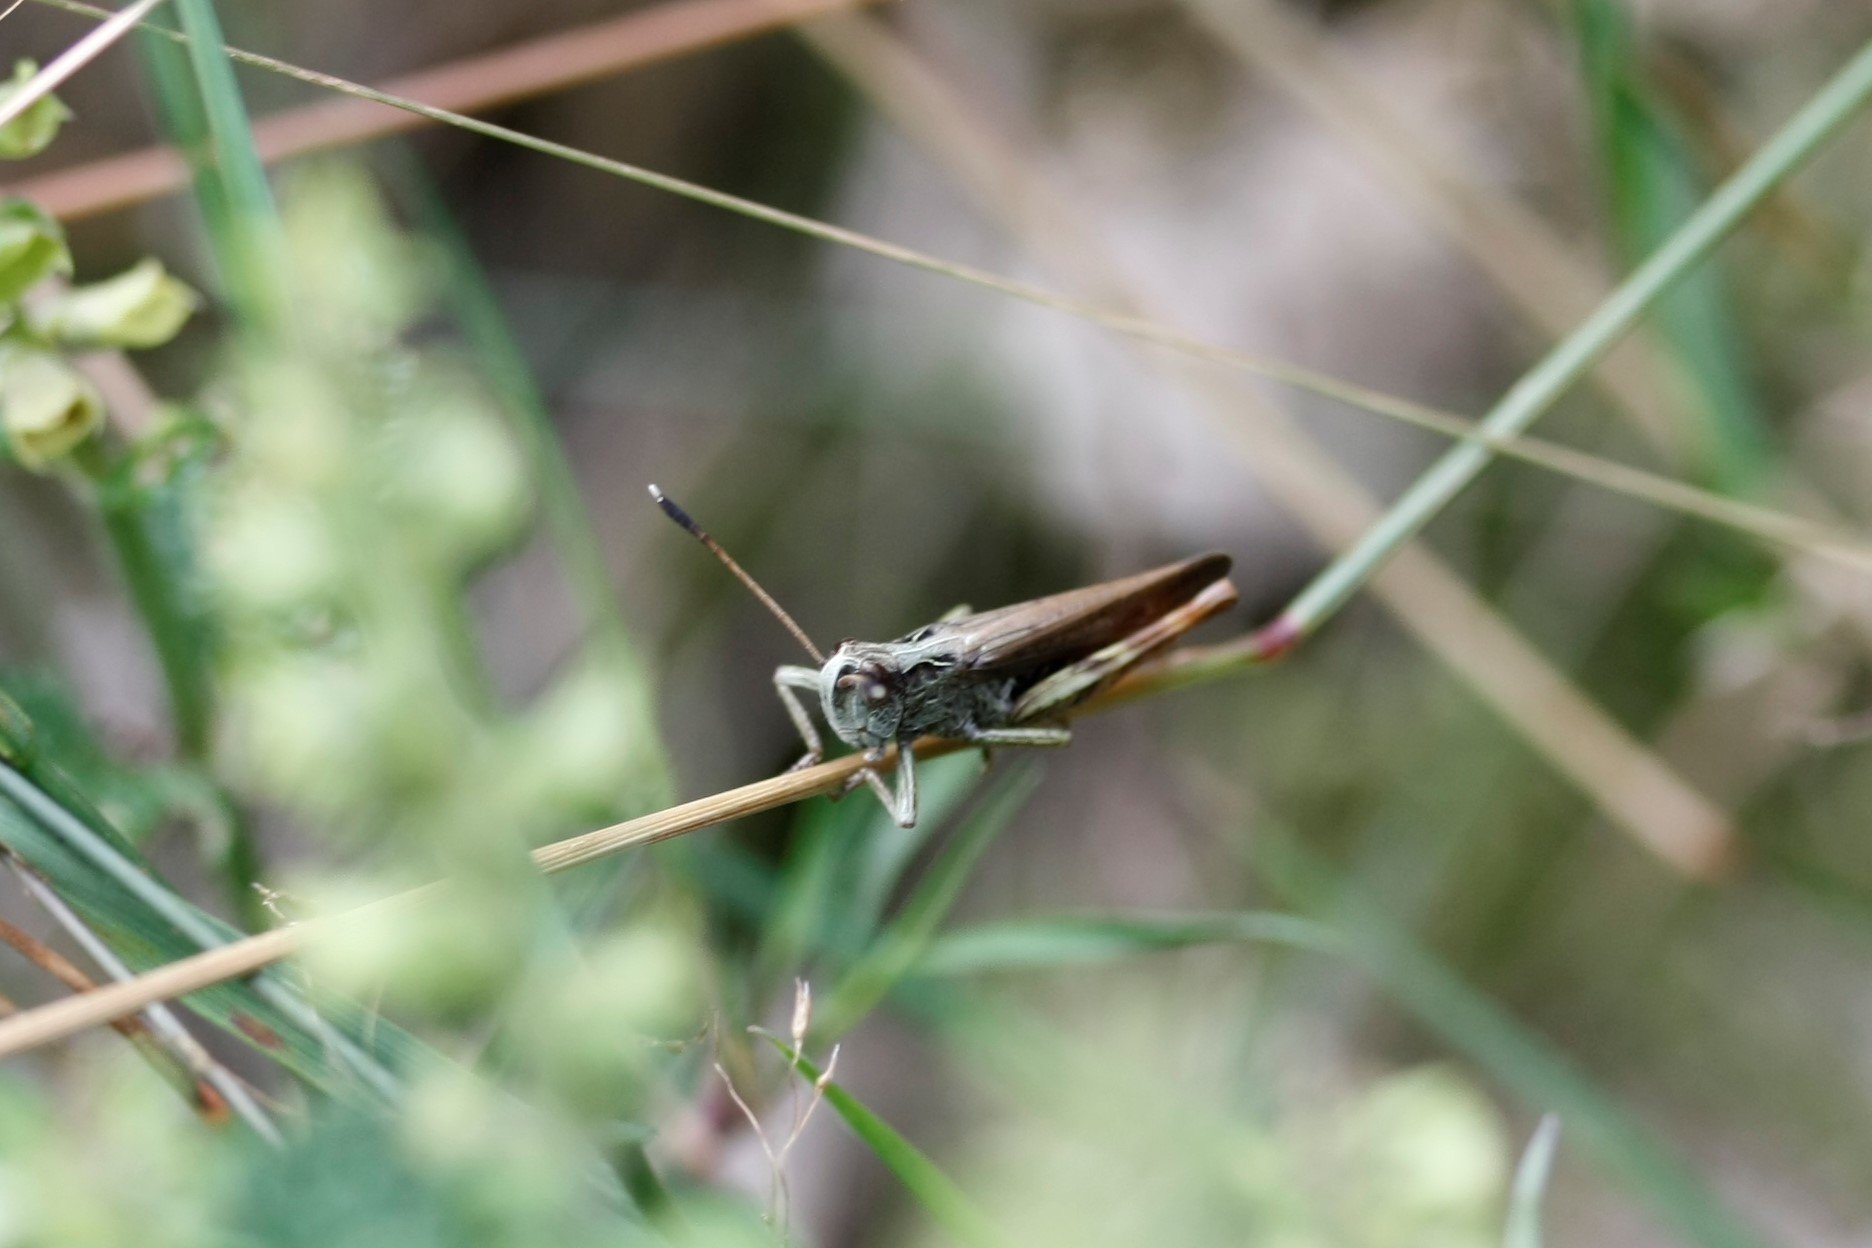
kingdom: Animalia
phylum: Arthropoda
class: Insecta
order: Orthoptera
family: Acrididae
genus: Gomphocerippus
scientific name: Gomphocerippus rufus
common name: Rufous grasshopper
